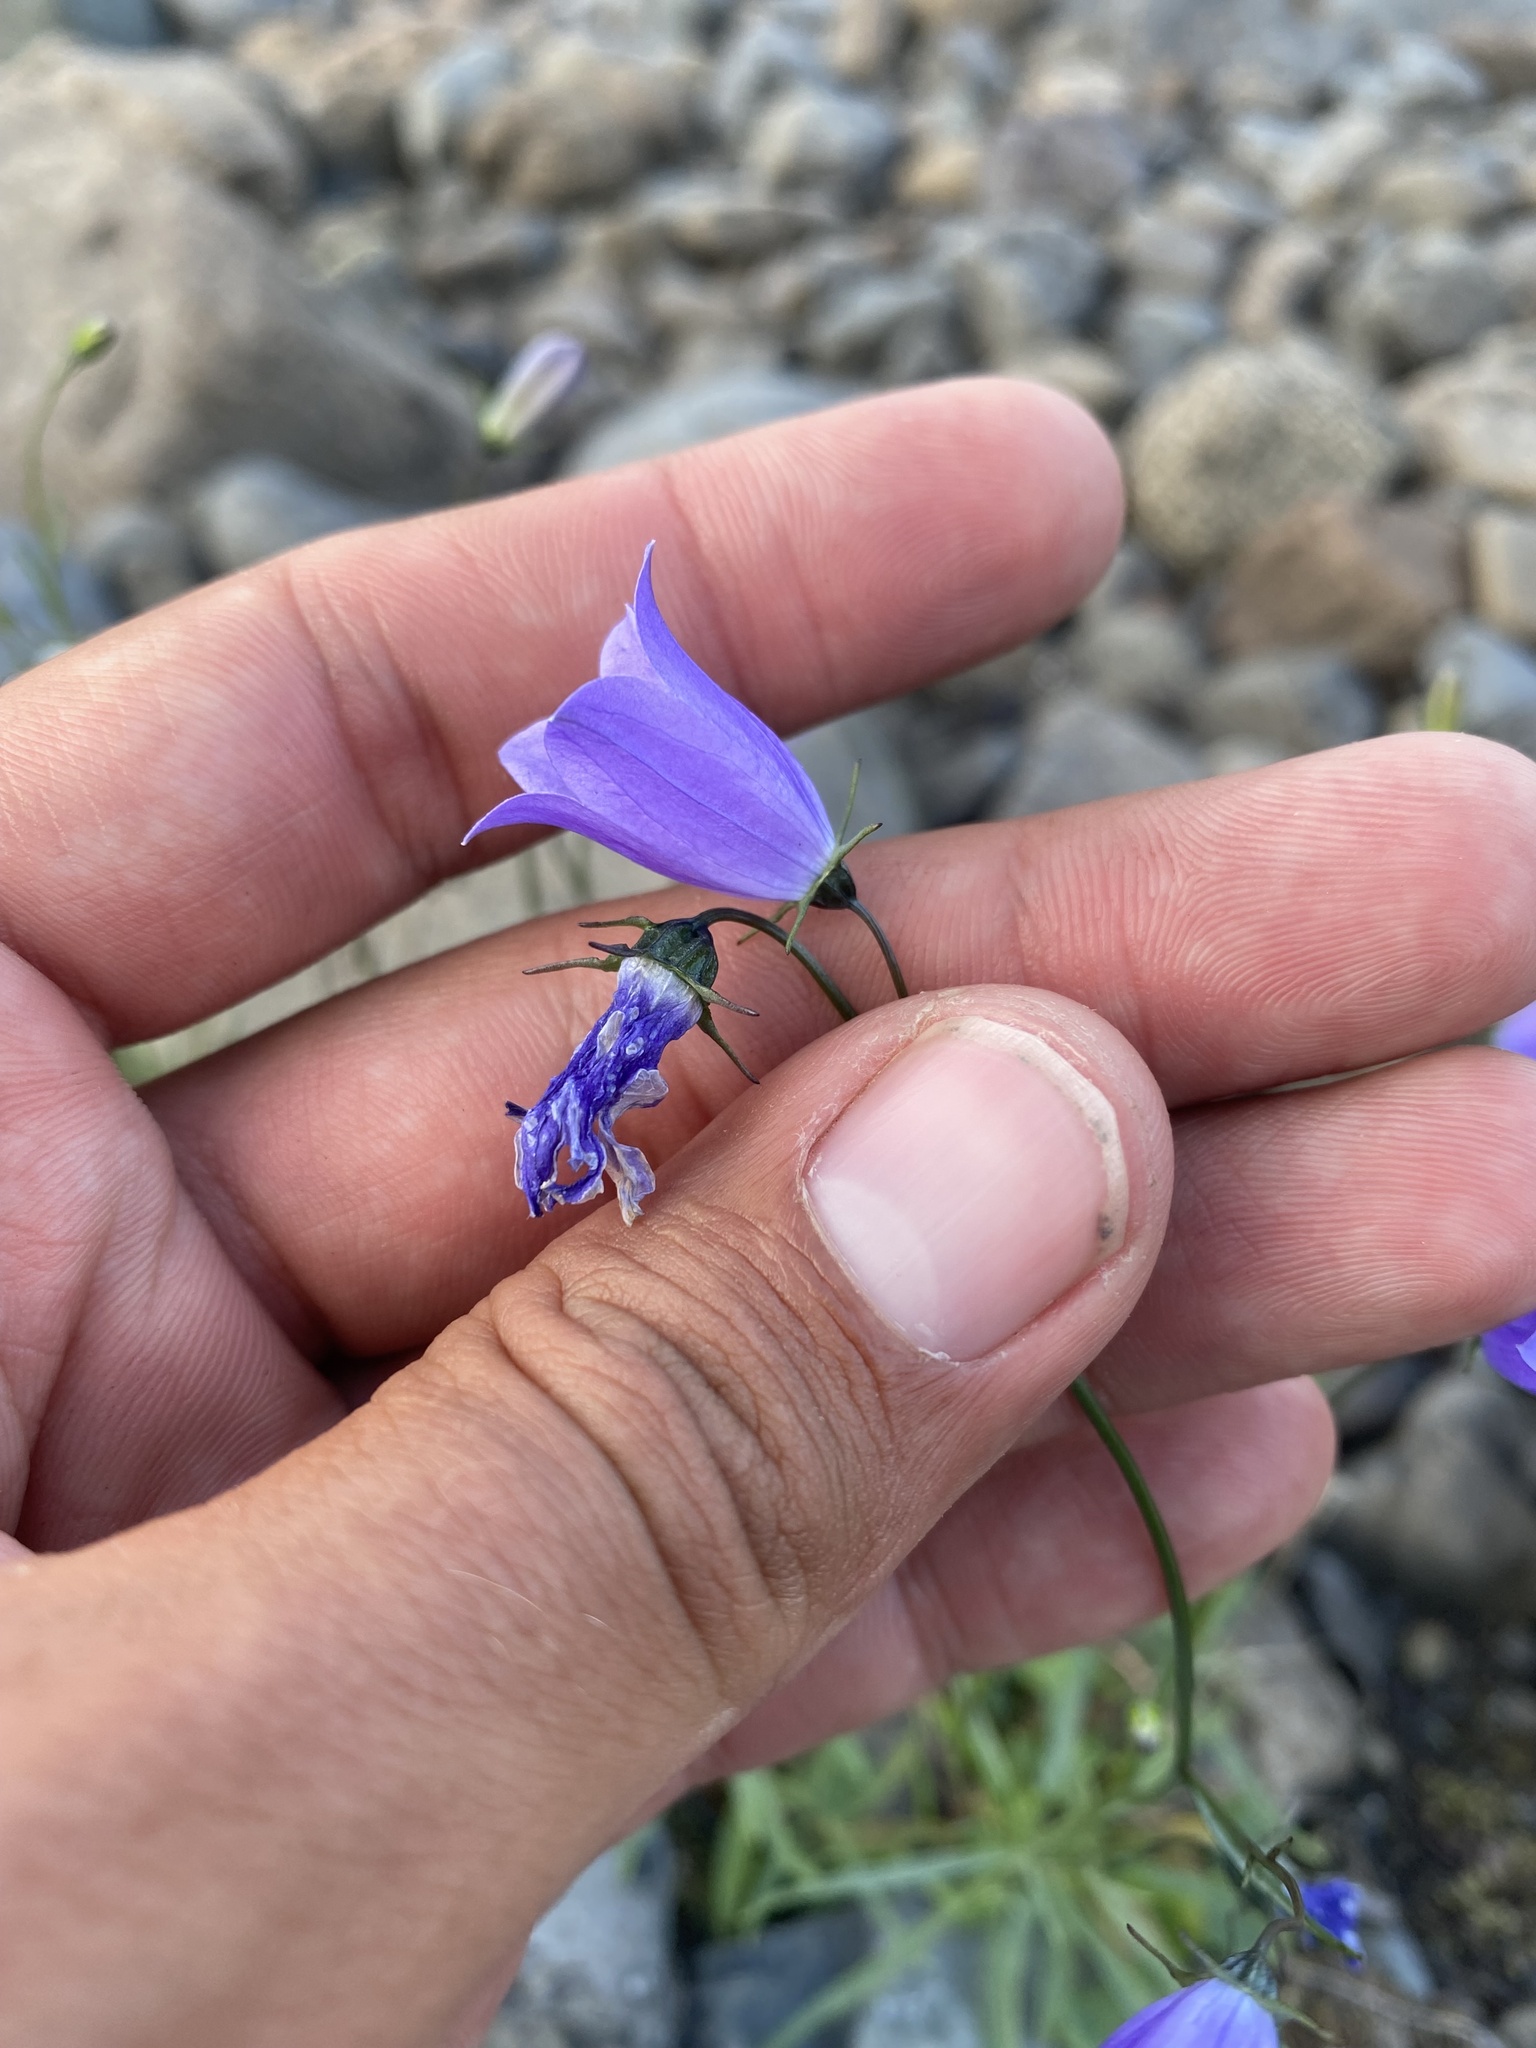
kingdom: Plantae
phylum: Tracheophyta
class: Magnoliopsida
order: Asterales
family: Campanulaceae
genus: Campanula
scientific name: Campanula rotundifolia
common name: Harebell
